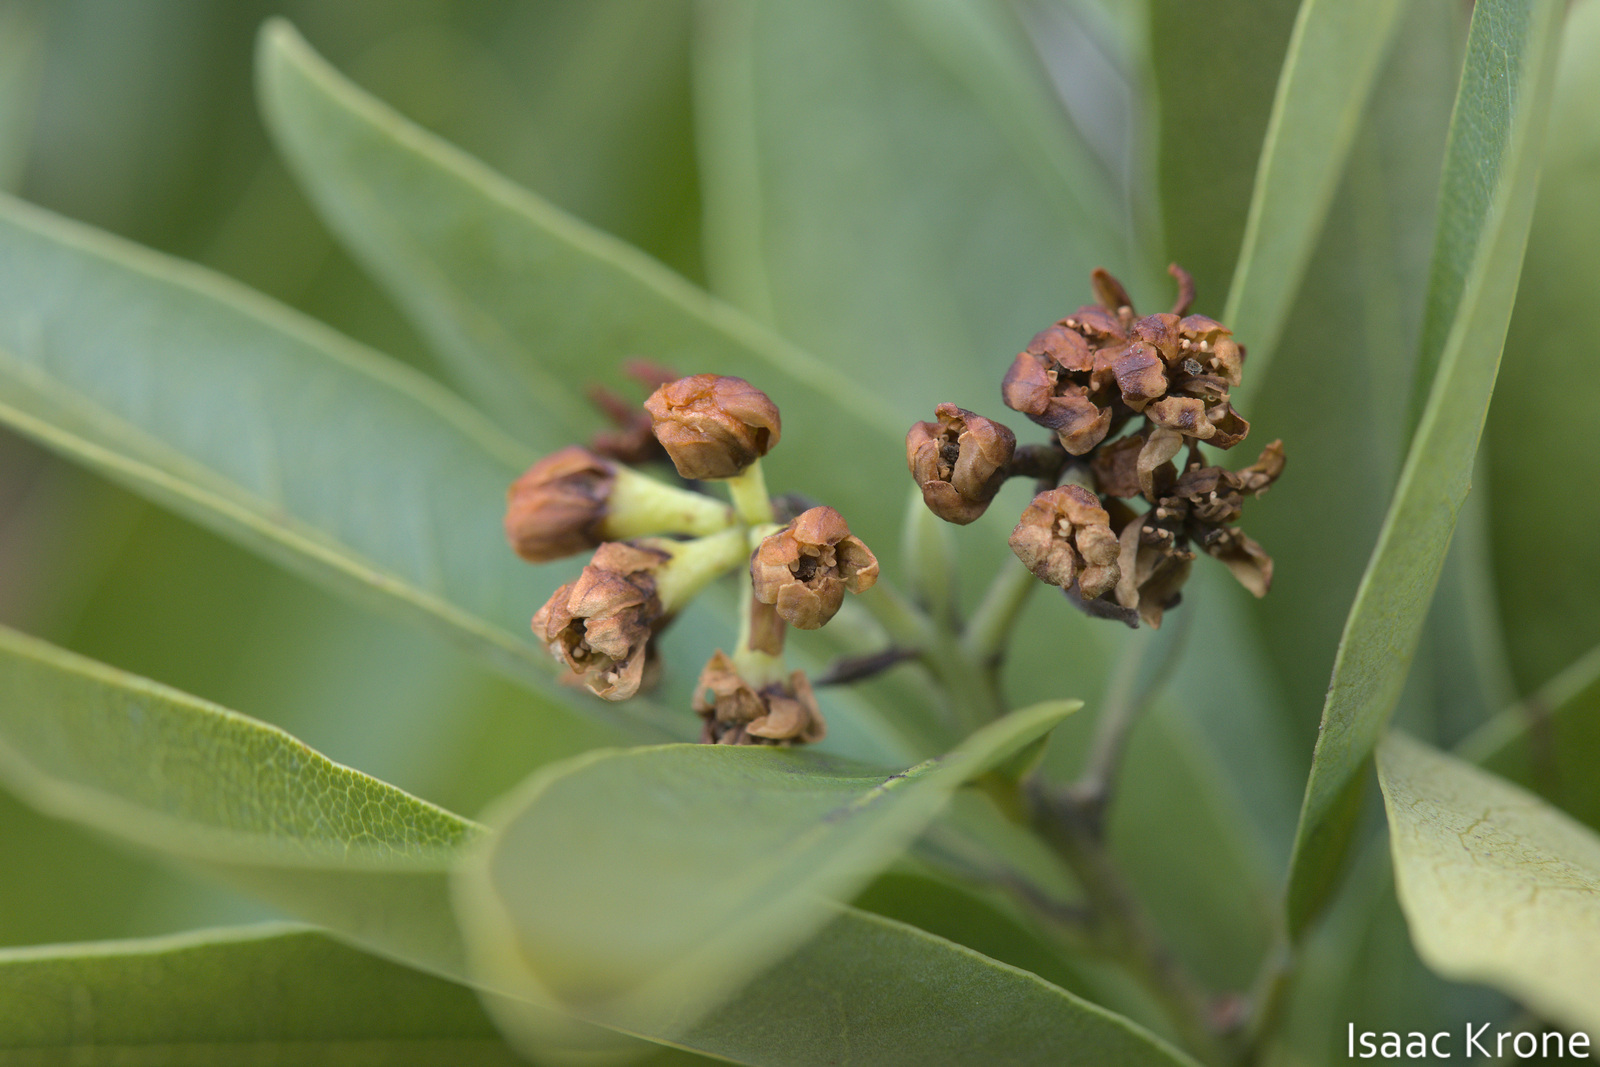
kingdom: Plantae
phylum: Tracheophyta
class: Magnoliopsida
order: Laurales
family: Lauraceae
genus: Umbellularia
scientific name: Umbellularia californica
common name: California bay
